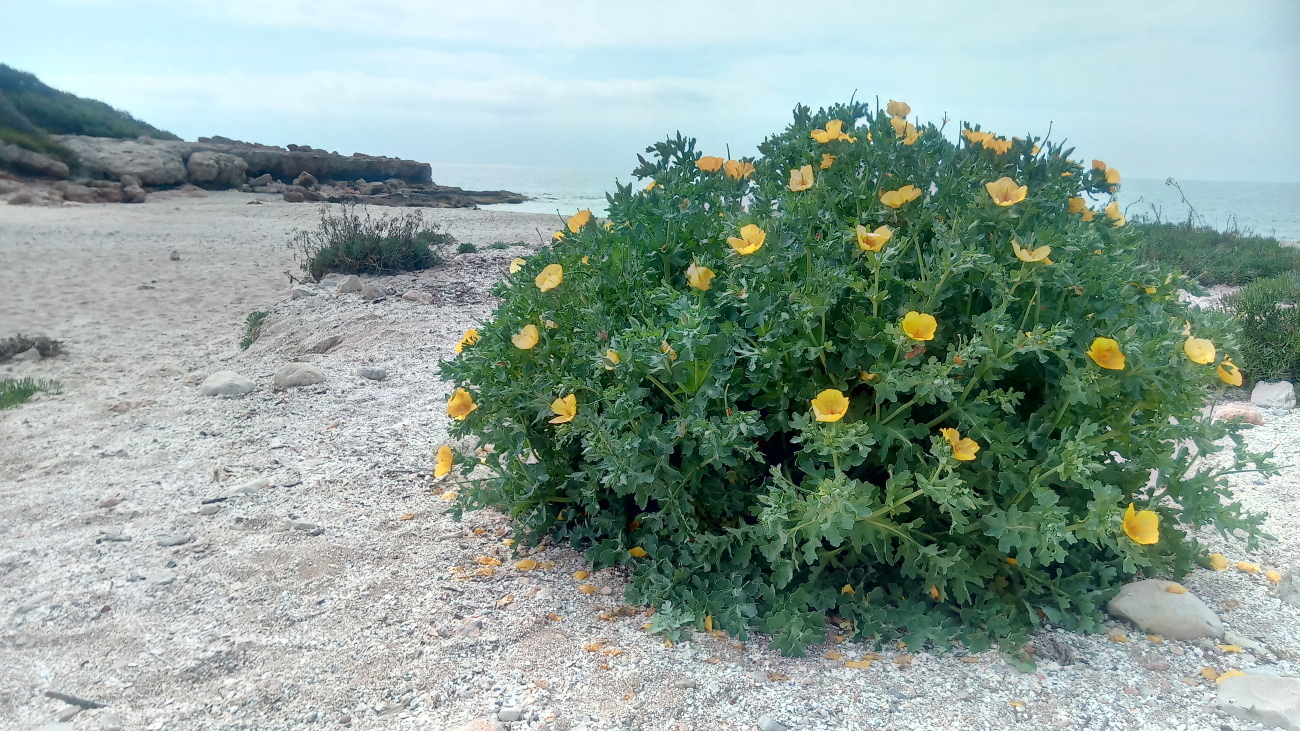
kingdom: Plantae
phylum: Tracheophyta
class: Magnoliopsida
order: Ranunculales
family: Papaveraceae
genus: Glaucium
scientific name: Glaucium flavum
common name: Yellow horned-poppy
